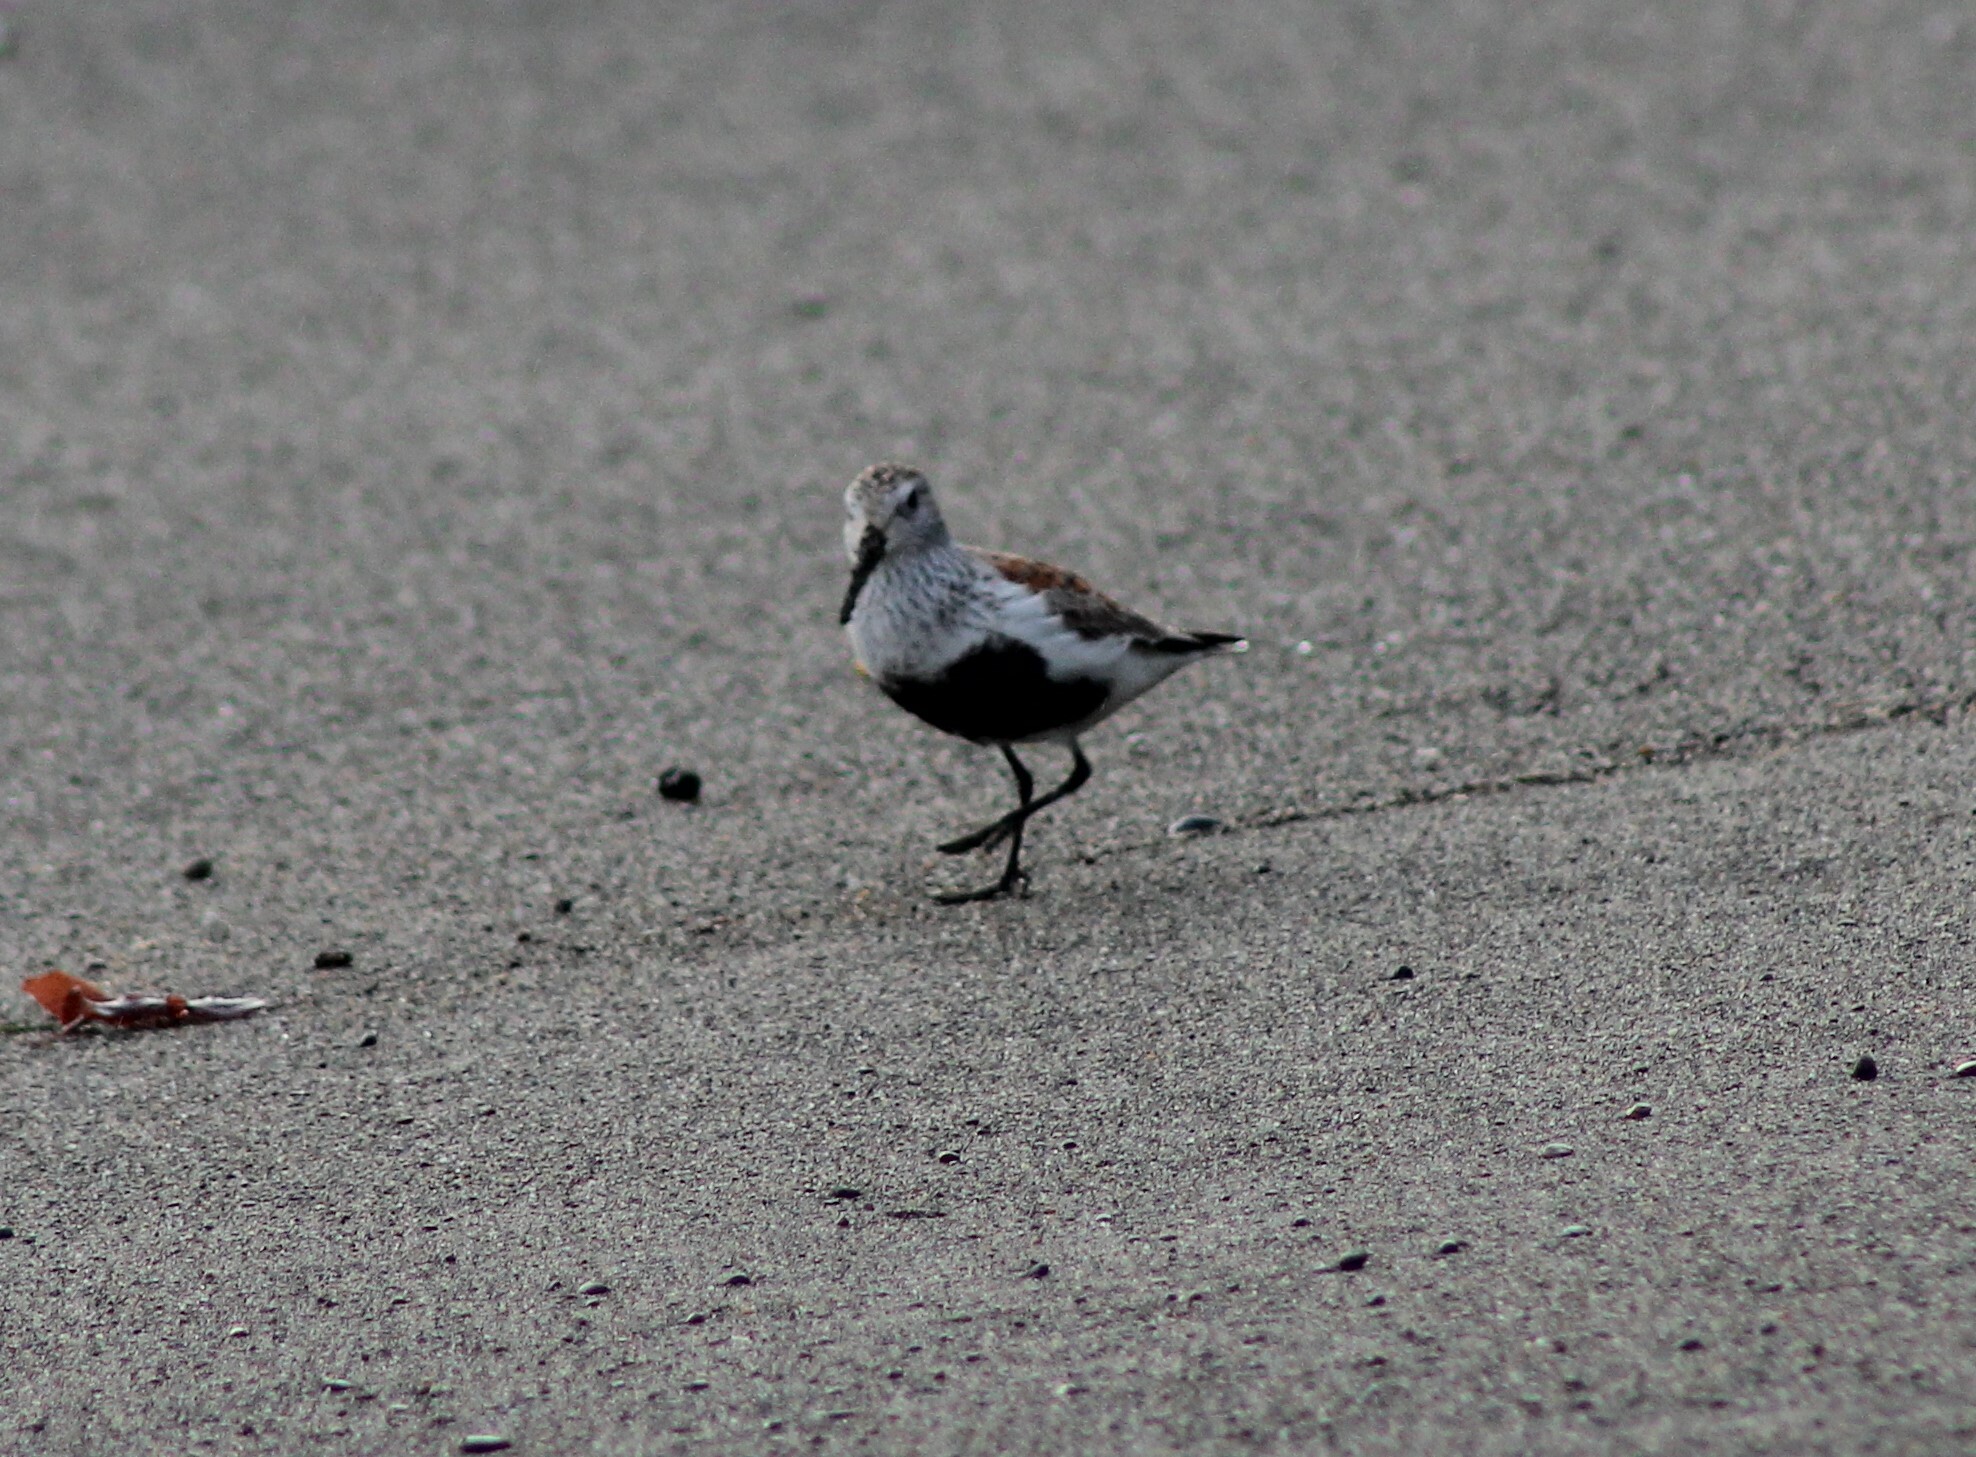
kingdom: Animalia
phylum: Chordata
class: Aves
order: Charadriiformes
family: Scolopacidae
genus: Calidris
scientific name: Calidris alpina
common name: Dunlin
